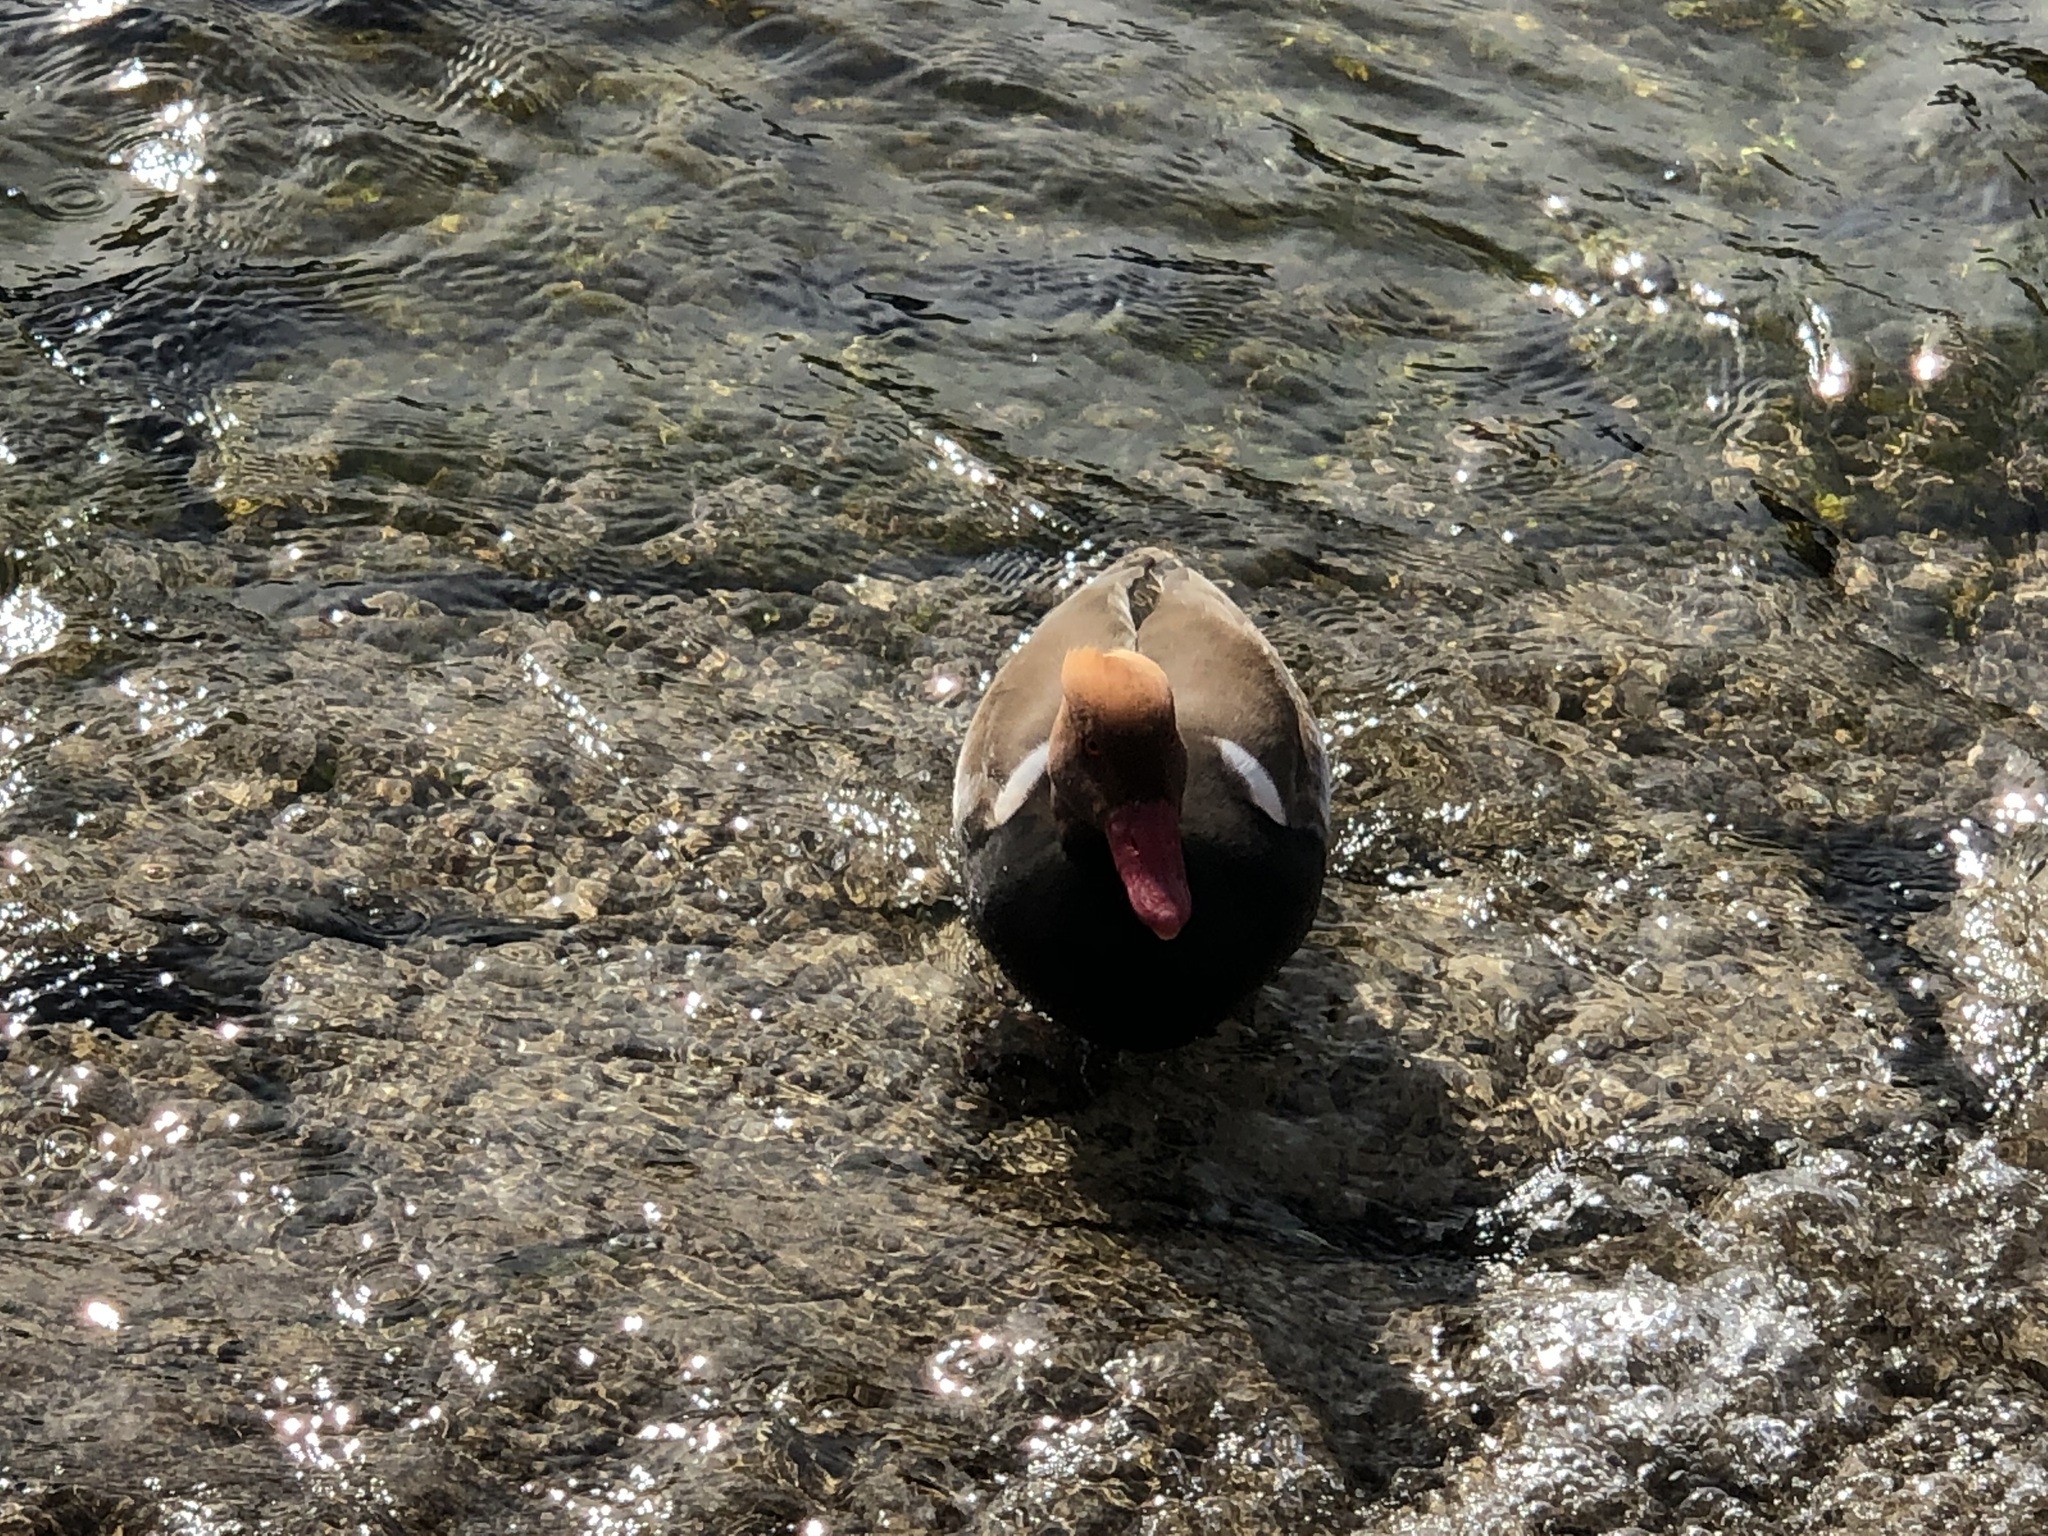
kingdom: Animalia
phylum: Chordata
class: Aves
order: Anseriformes
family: Anatidae
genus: Netta
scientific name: Netta rufina
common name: Red-crested pochard
